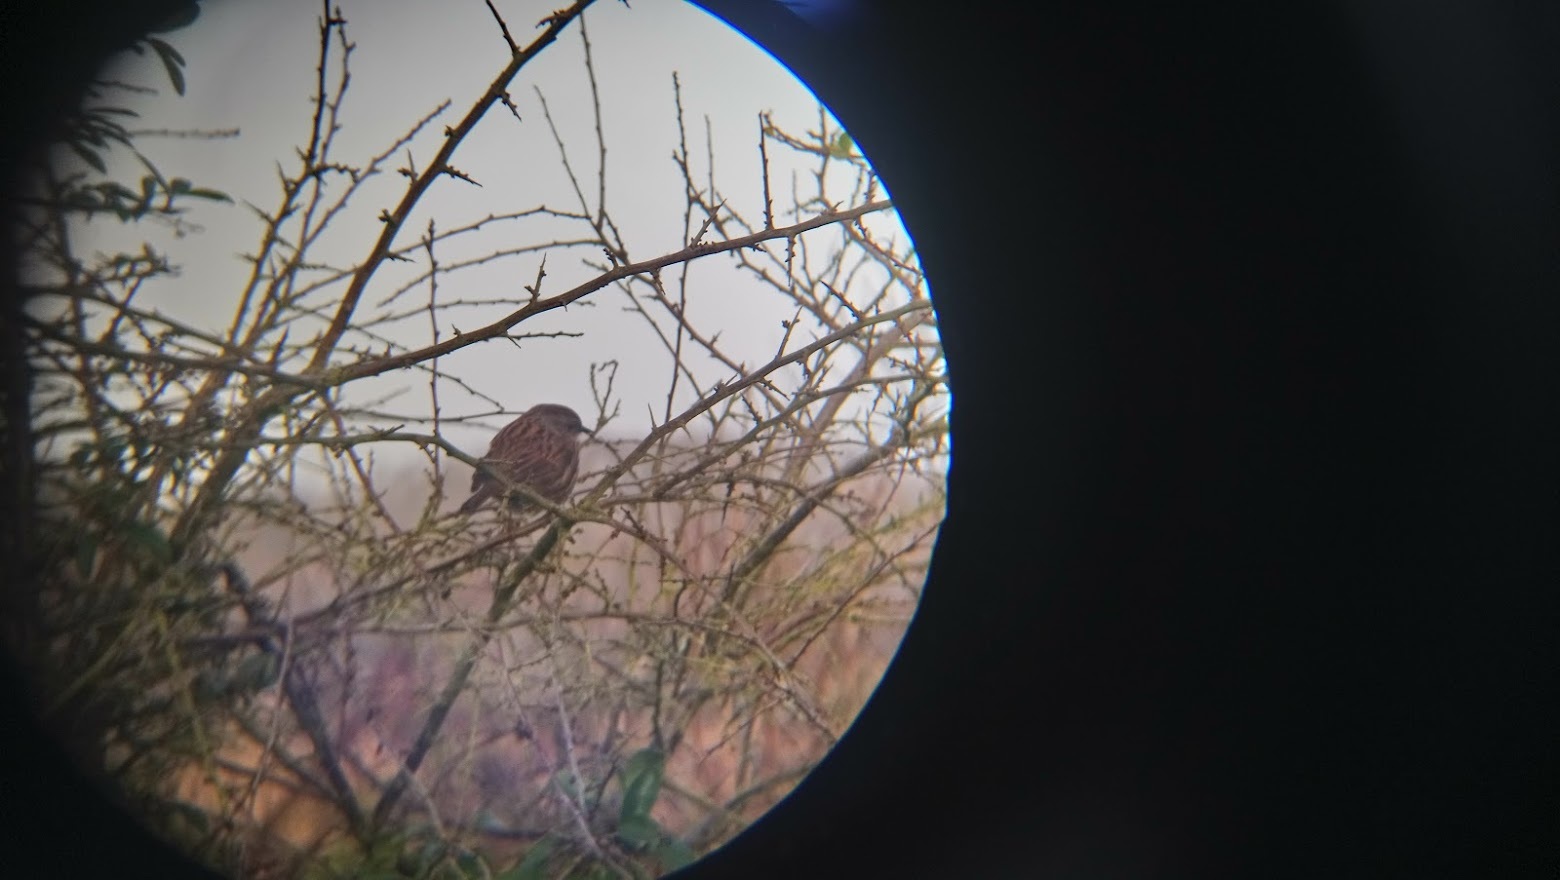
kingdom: Animalia
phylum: Chordata
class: Aves
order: Passeriformes
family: Prunellidae
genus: Prunella
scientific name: Prunella modularis
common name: Dunnock
